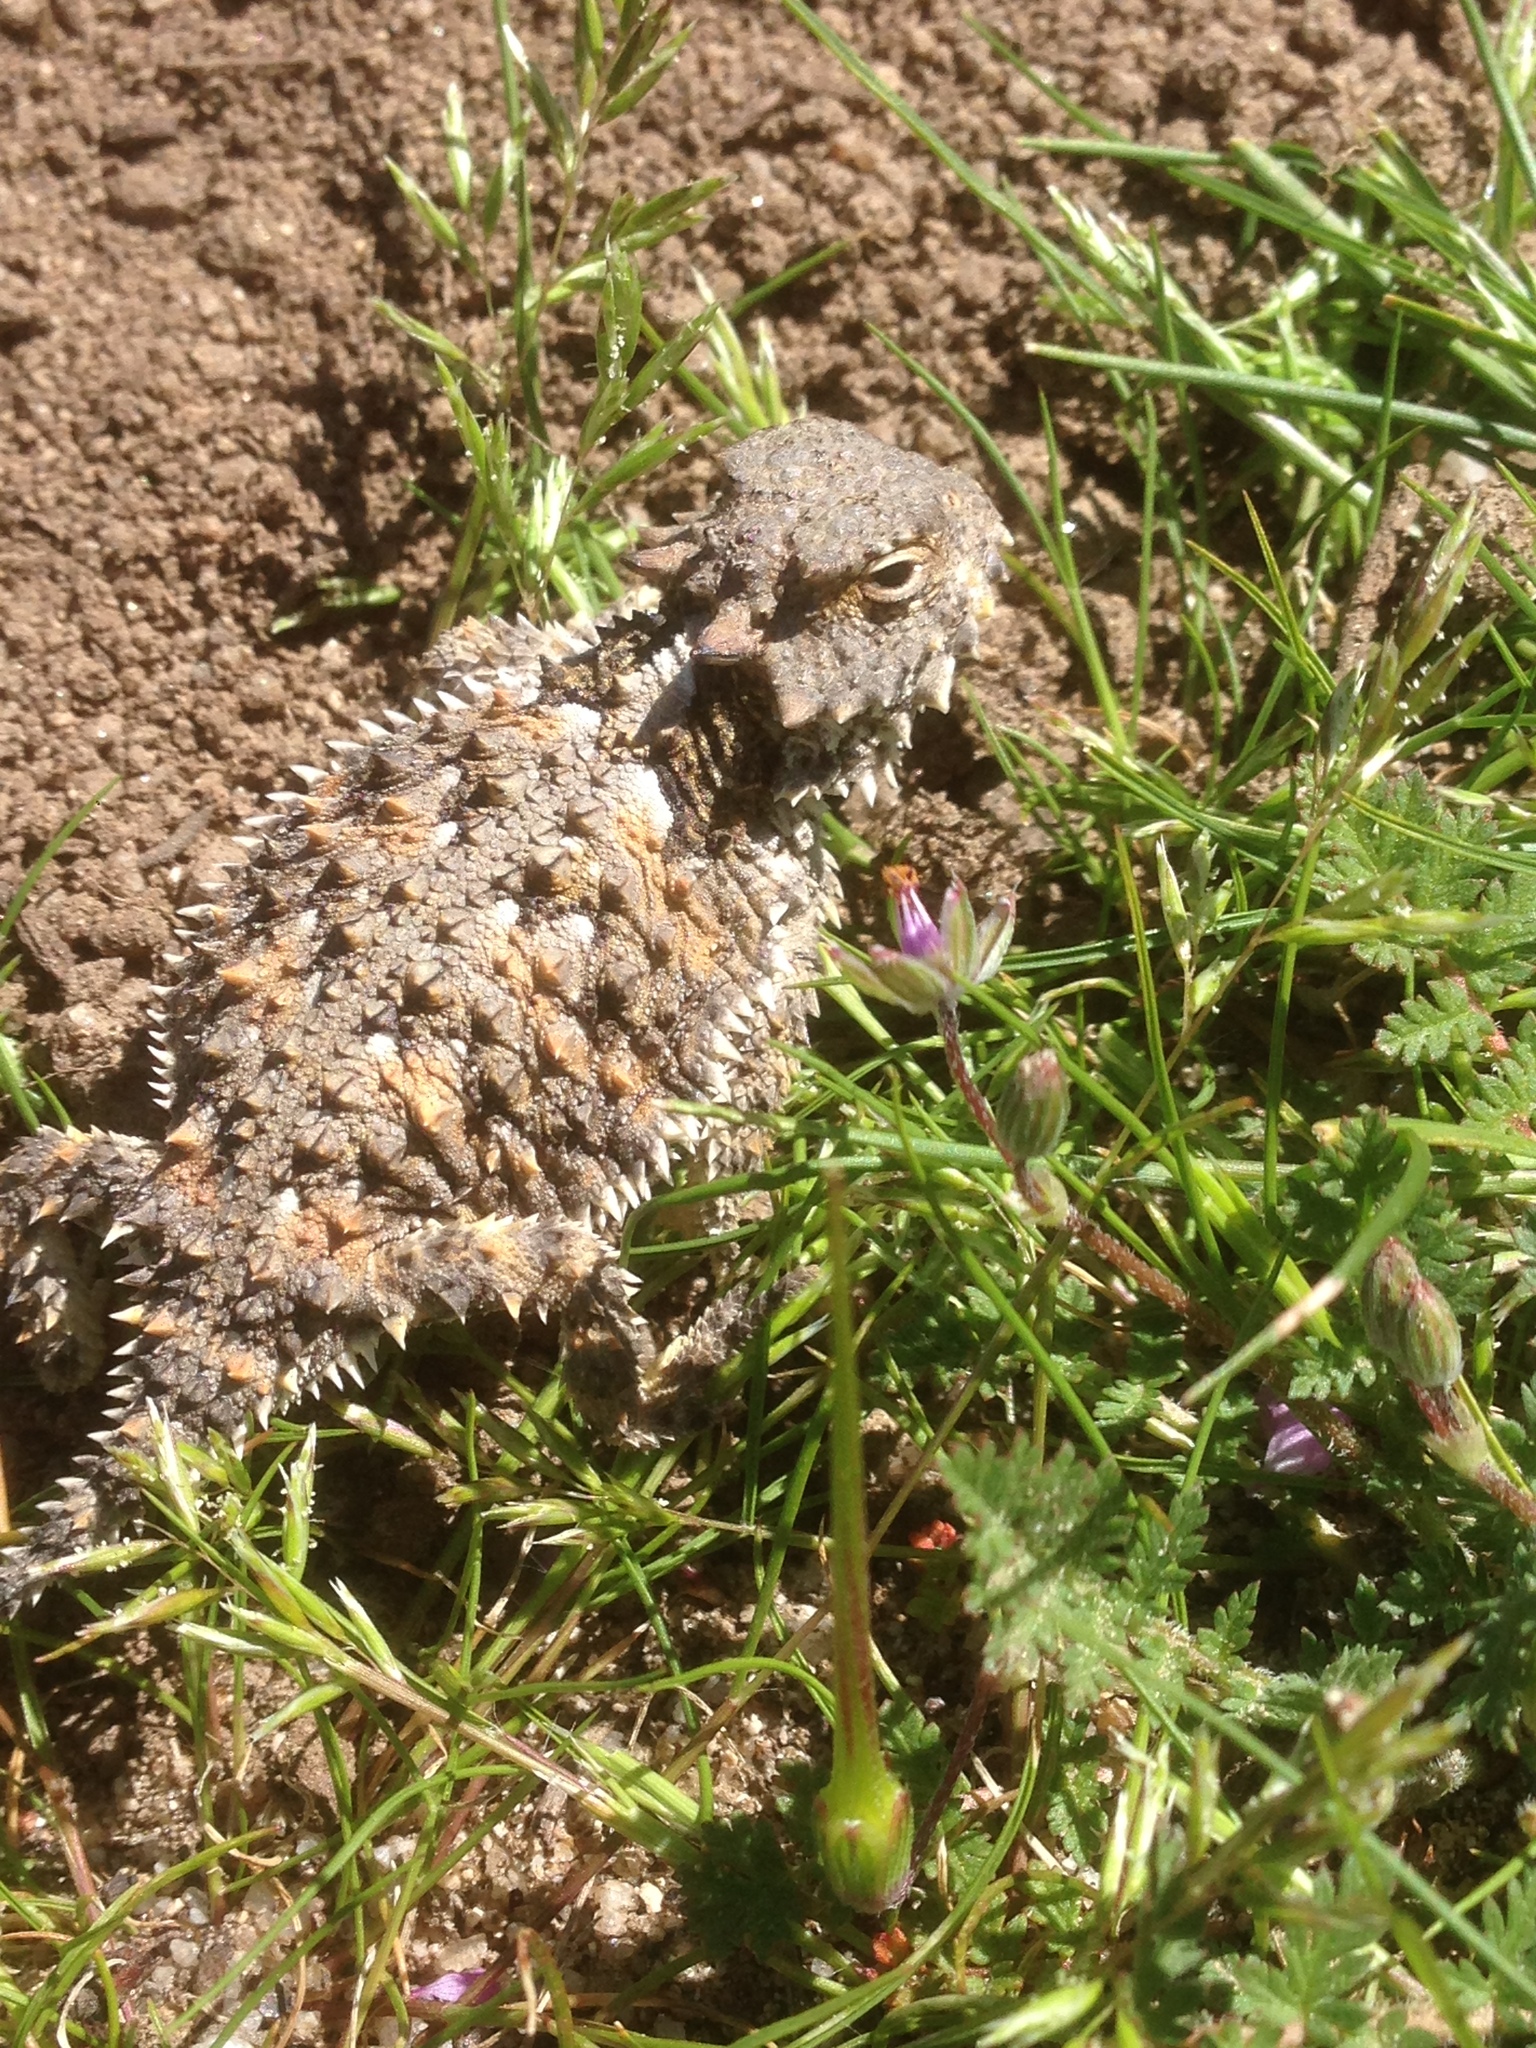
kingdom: Animalia
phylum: Chordata
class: Squamata
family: Phrynosomatidae
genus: Phrynosoma
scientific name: Phrynosoma blainvillii
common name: San diego horned lizard
